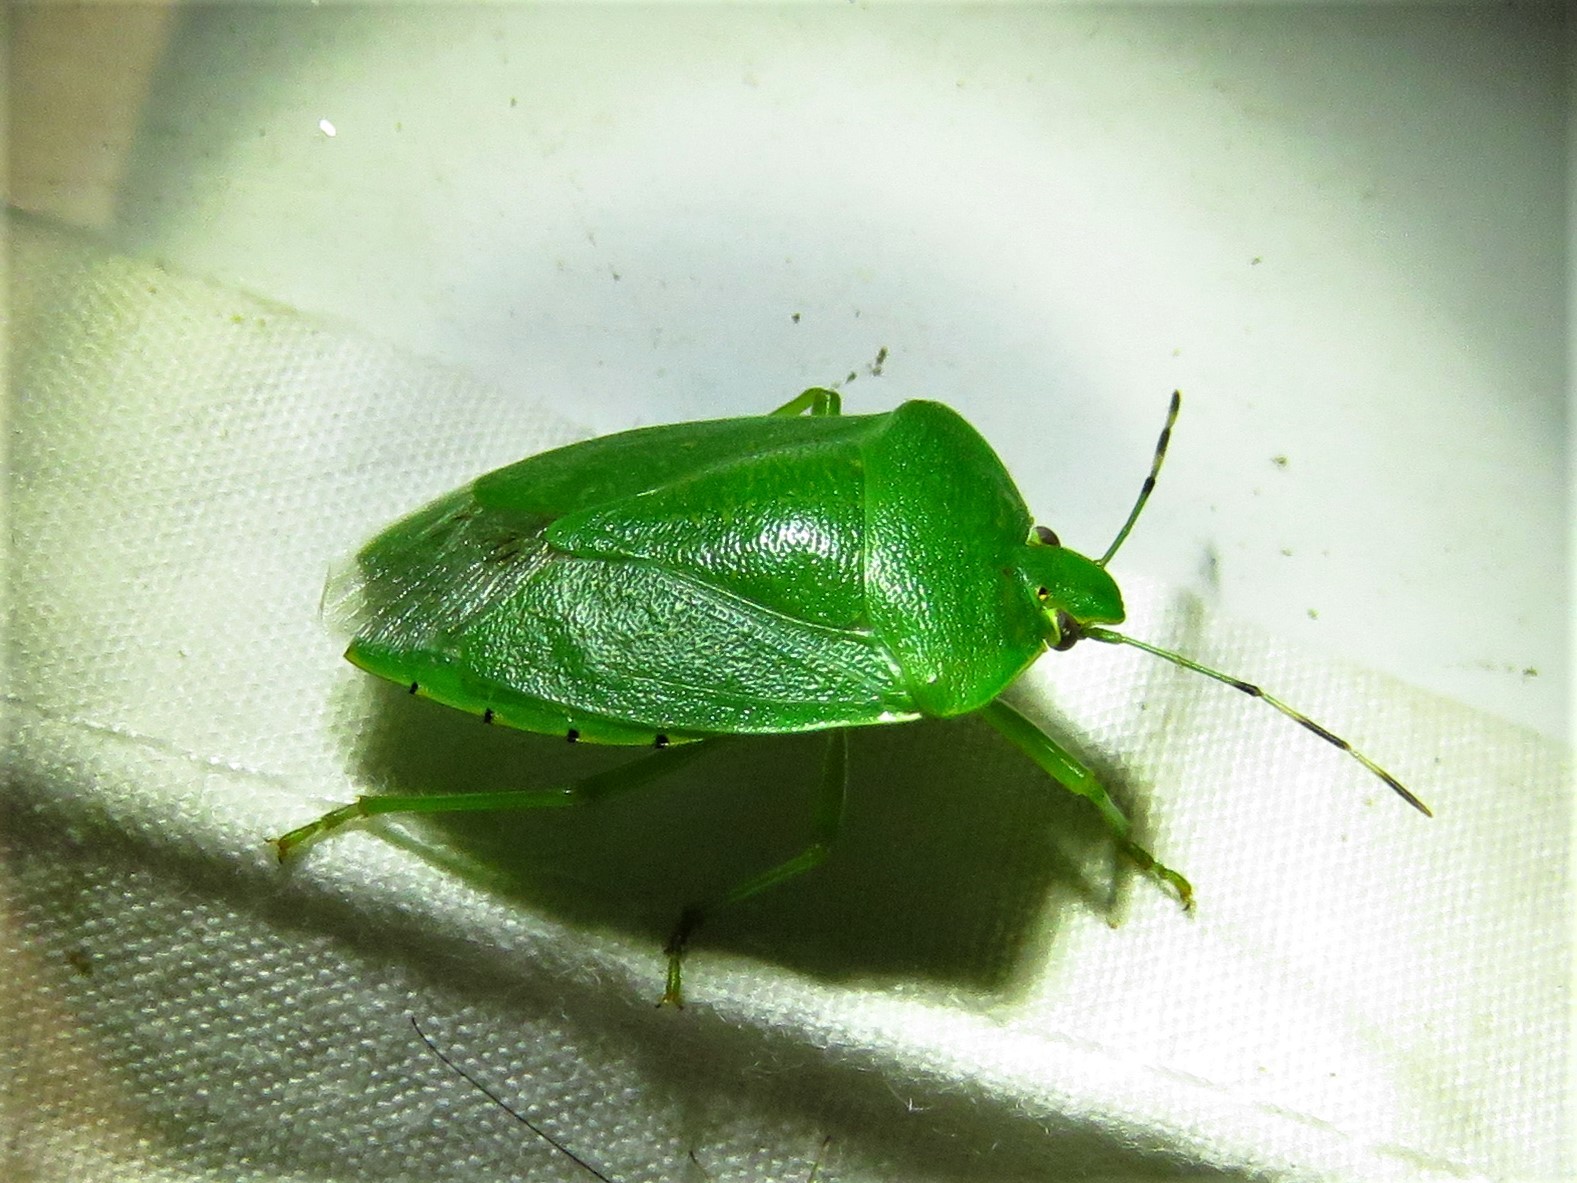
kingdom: Animalia
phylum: Arthropoda
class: Insecta
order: Hemiptera
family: Pentatomidae
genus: Chinavia
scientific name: Chinavia hilaris
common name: Green stink bug
